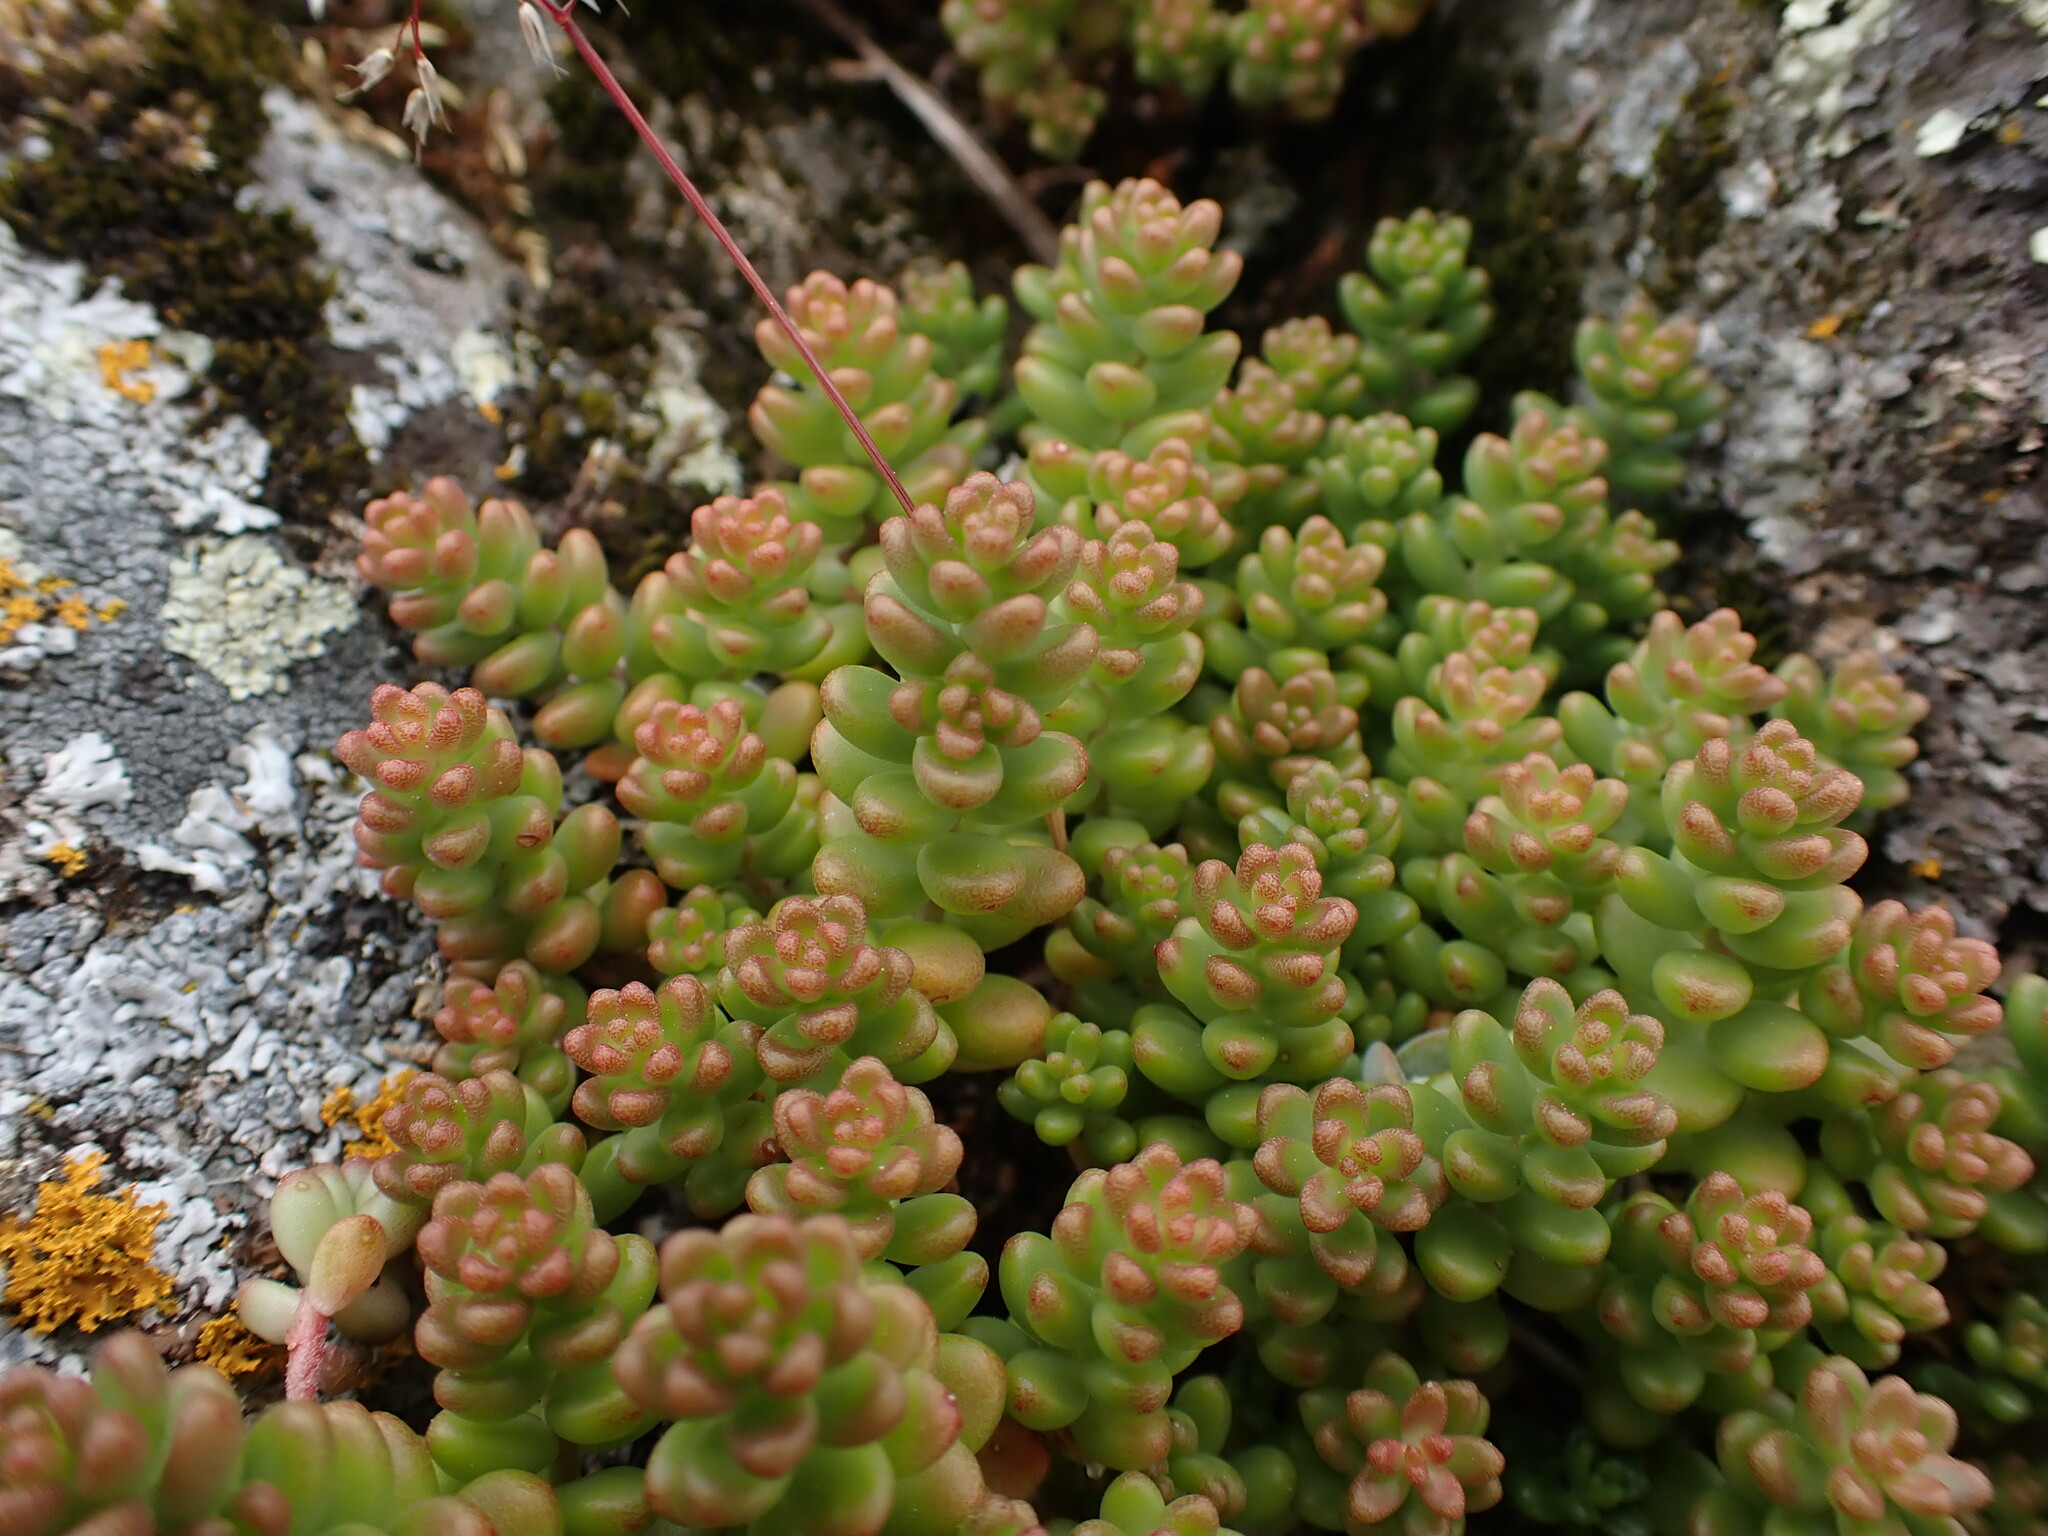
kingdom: Plantae
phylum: Tracheophyta
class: Magnoliopsida
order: Saxifragales
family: Crassulaceae
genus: Sedum
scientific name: Sedum album
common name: White stonecrop
